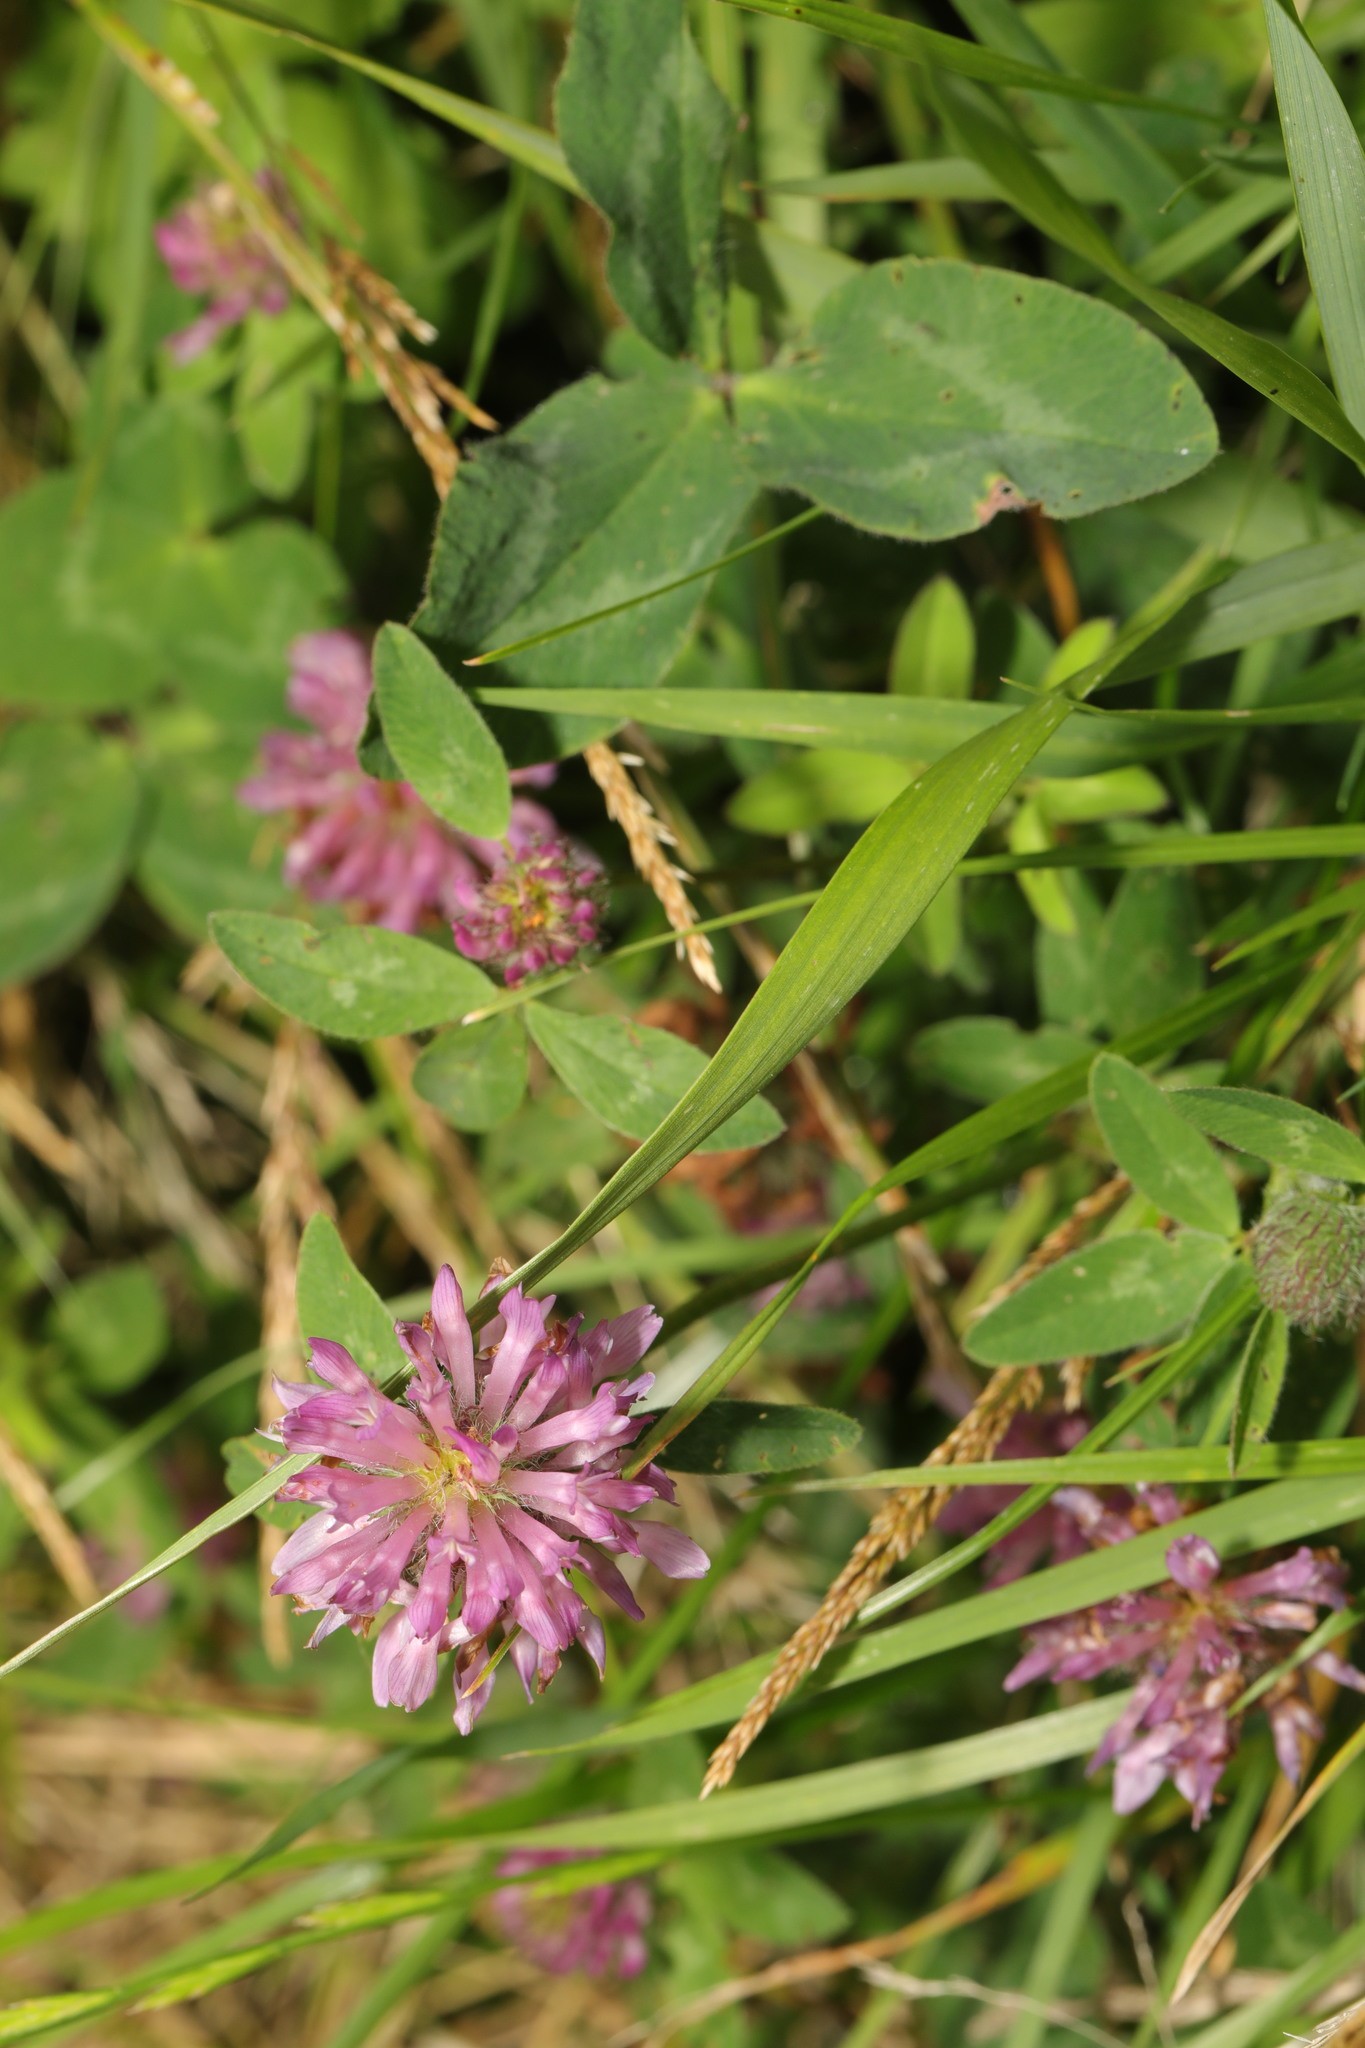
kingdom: Plantae
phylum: Tracheophyta
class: Magnoliopsida
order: Fabales
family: Fabaceae
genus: Trifolium
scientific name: Trifolium pratense
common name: Red clover
